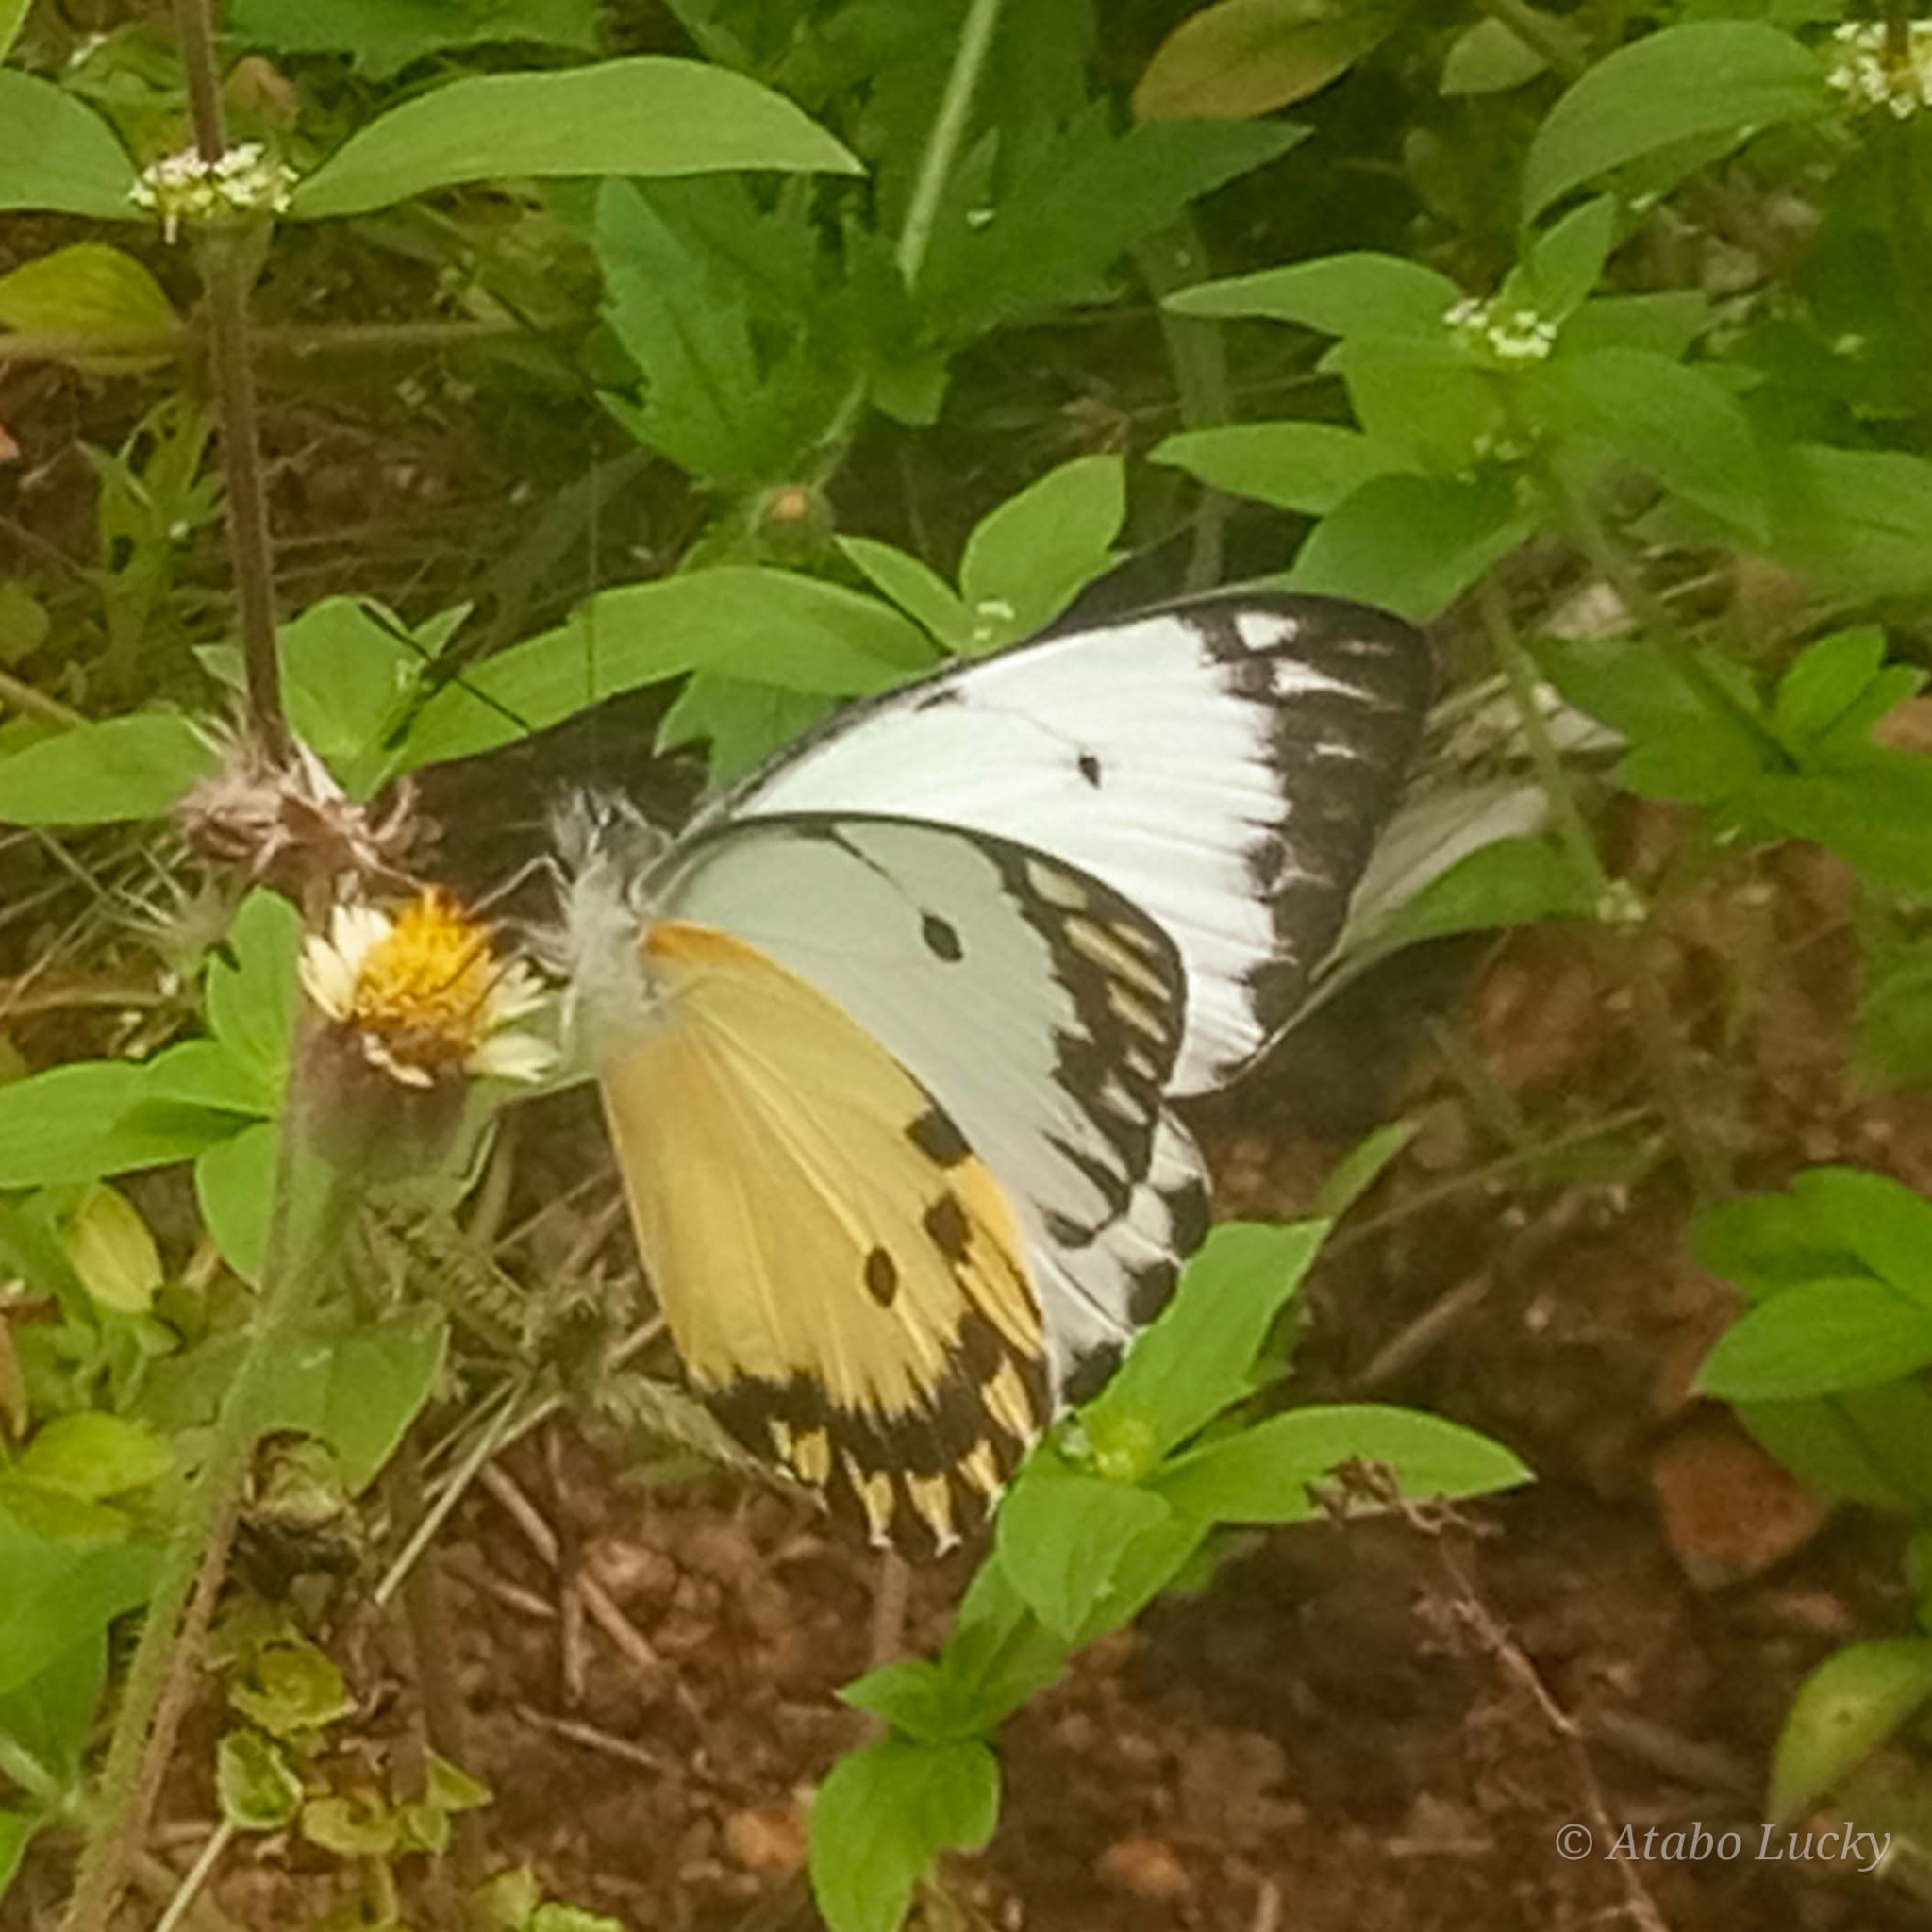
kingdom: Animalia
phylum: Arthropoda
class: Insecta
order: Lepidoptera
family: Pieridae
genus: Belenois
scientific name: Belenois calypso
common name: Calypso caper white
